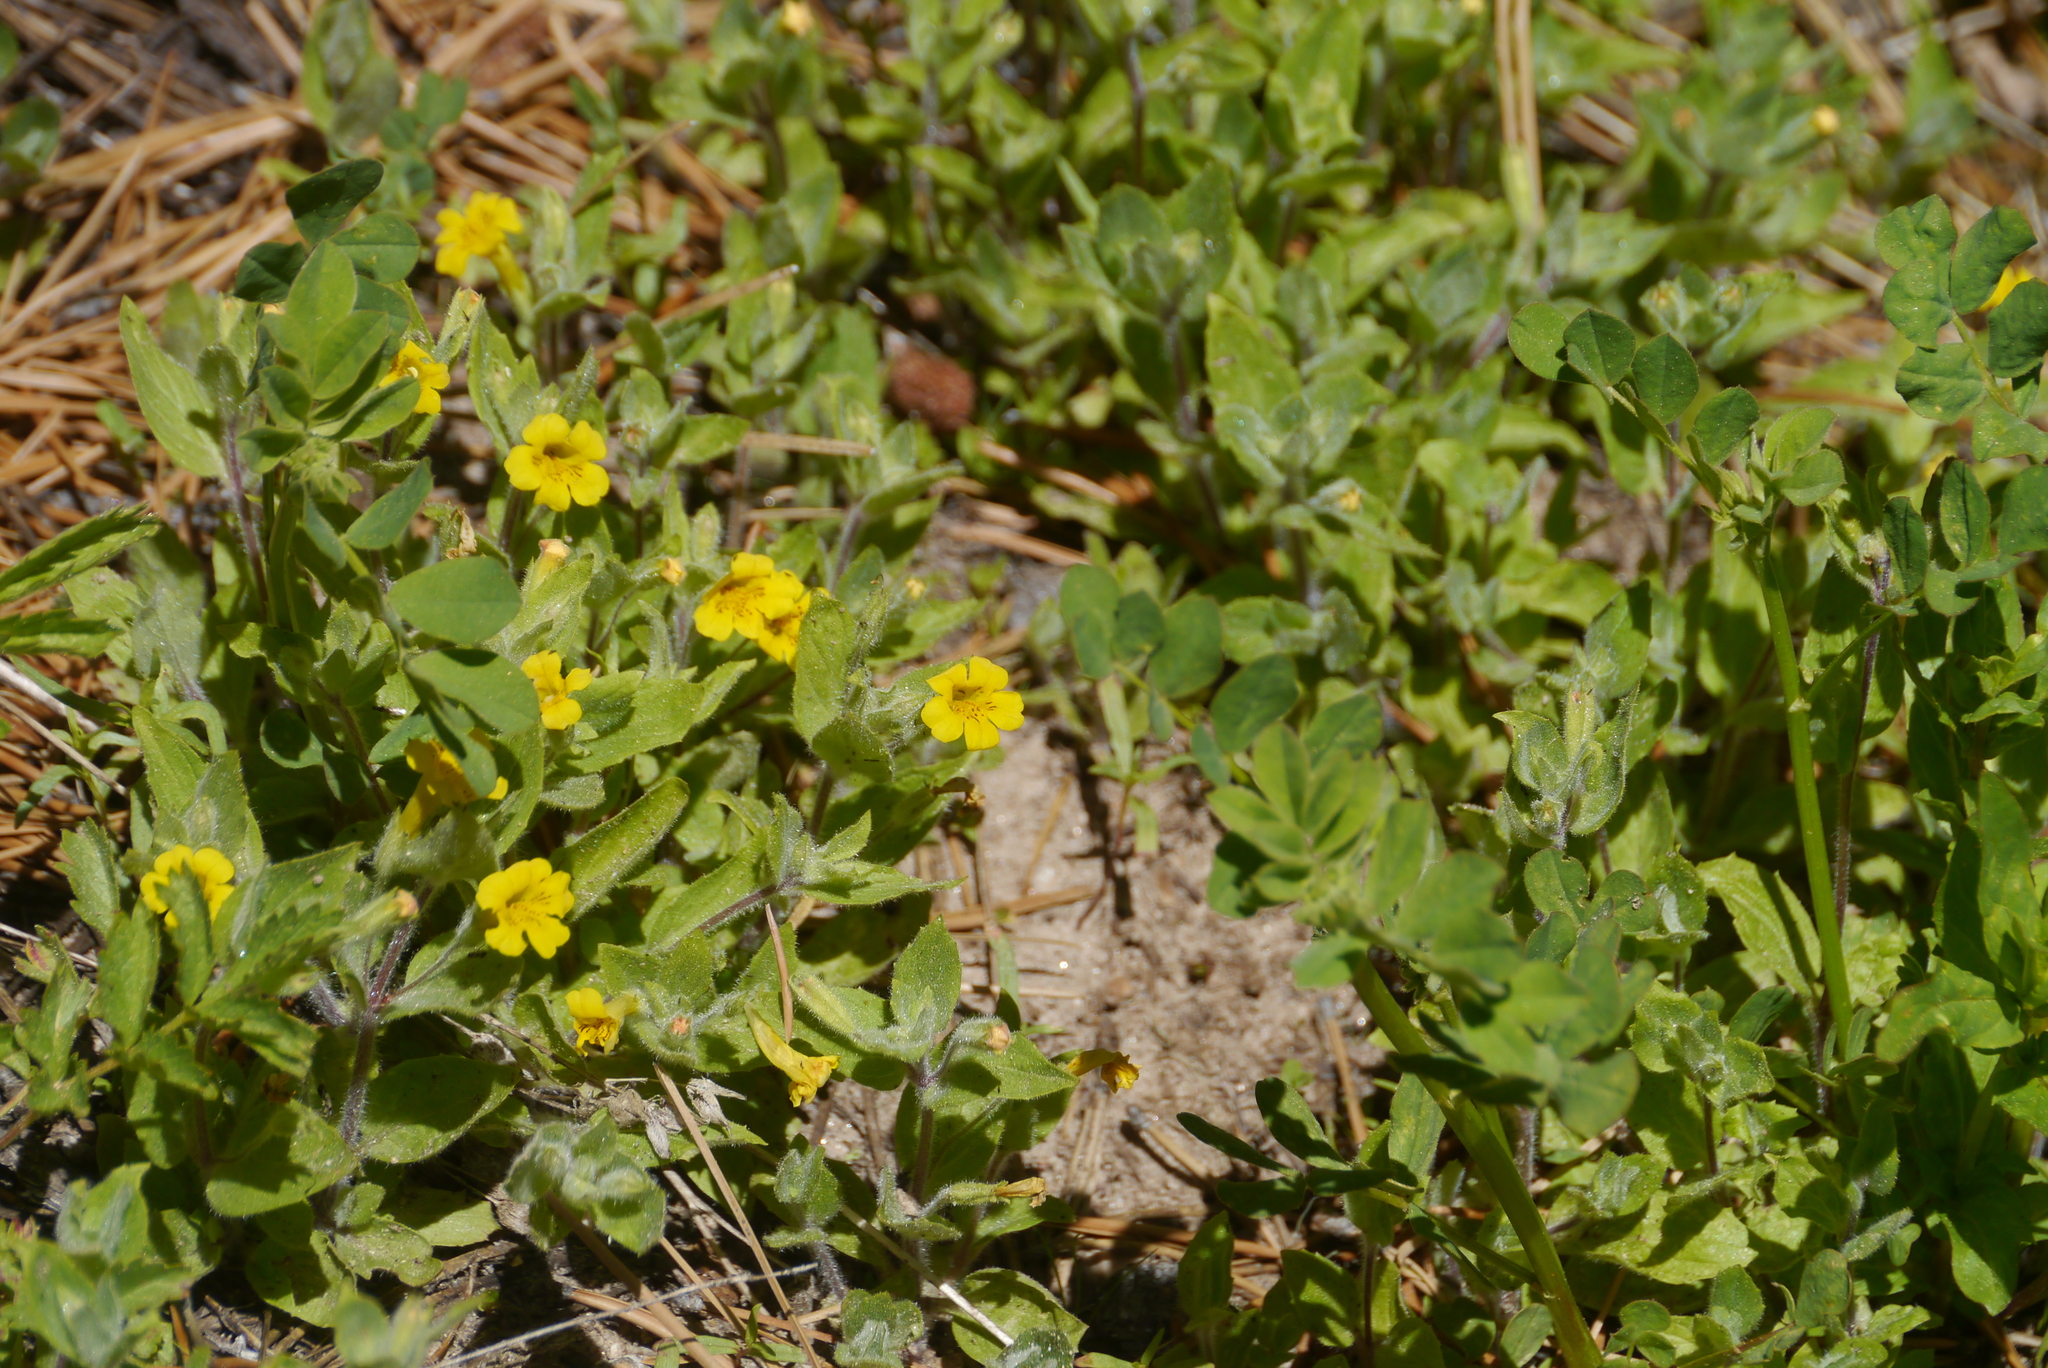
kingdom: Plantae
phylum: Tracheophyta
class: Magnoliopsida
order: Lamiales
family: Phrymaceae
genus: Erythranthe
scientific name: Erythranthe moschata
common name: Muskflower
